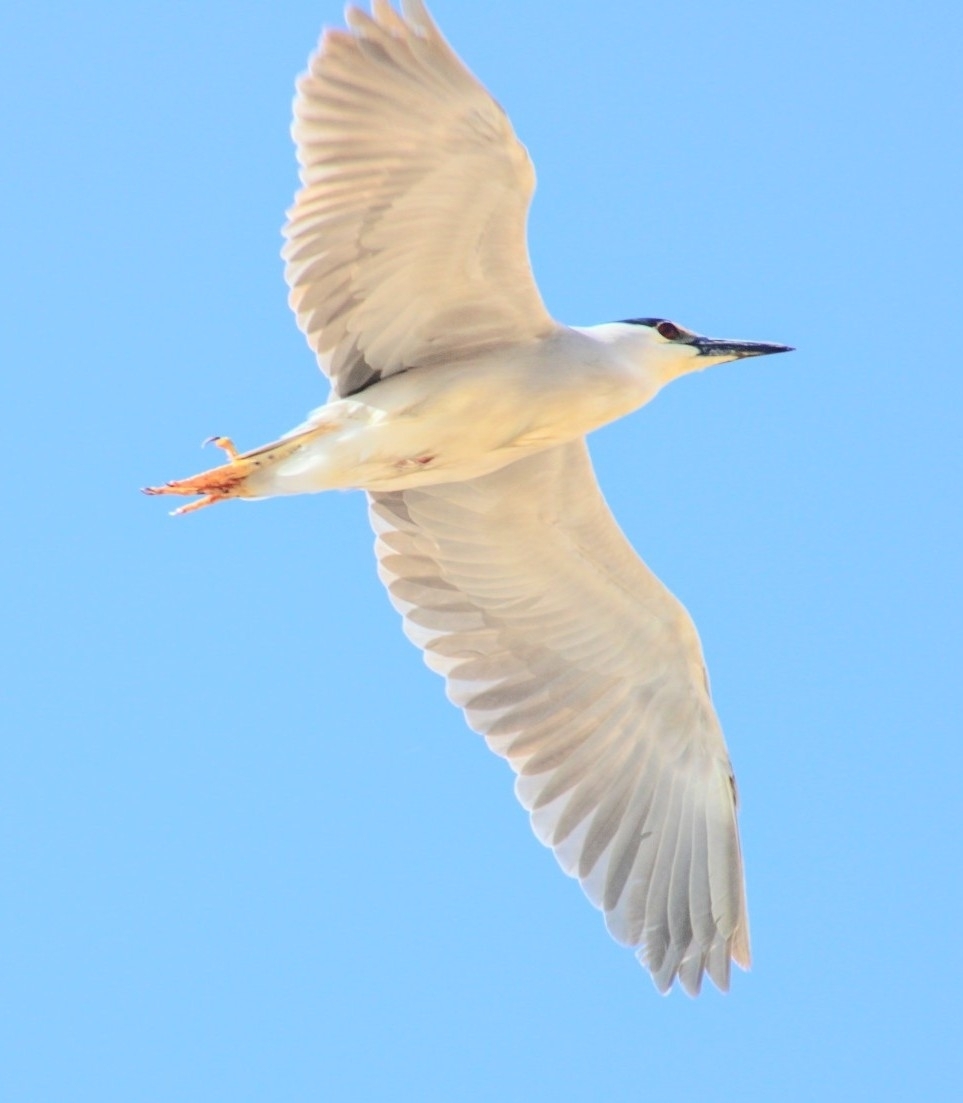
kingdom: Animalia
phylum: Chordata
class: Aves
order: Pelecaniformes
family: Ardeidae
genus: Nycticorax
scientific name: Nycticorax nycticorax
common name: Black-crowned night heron
